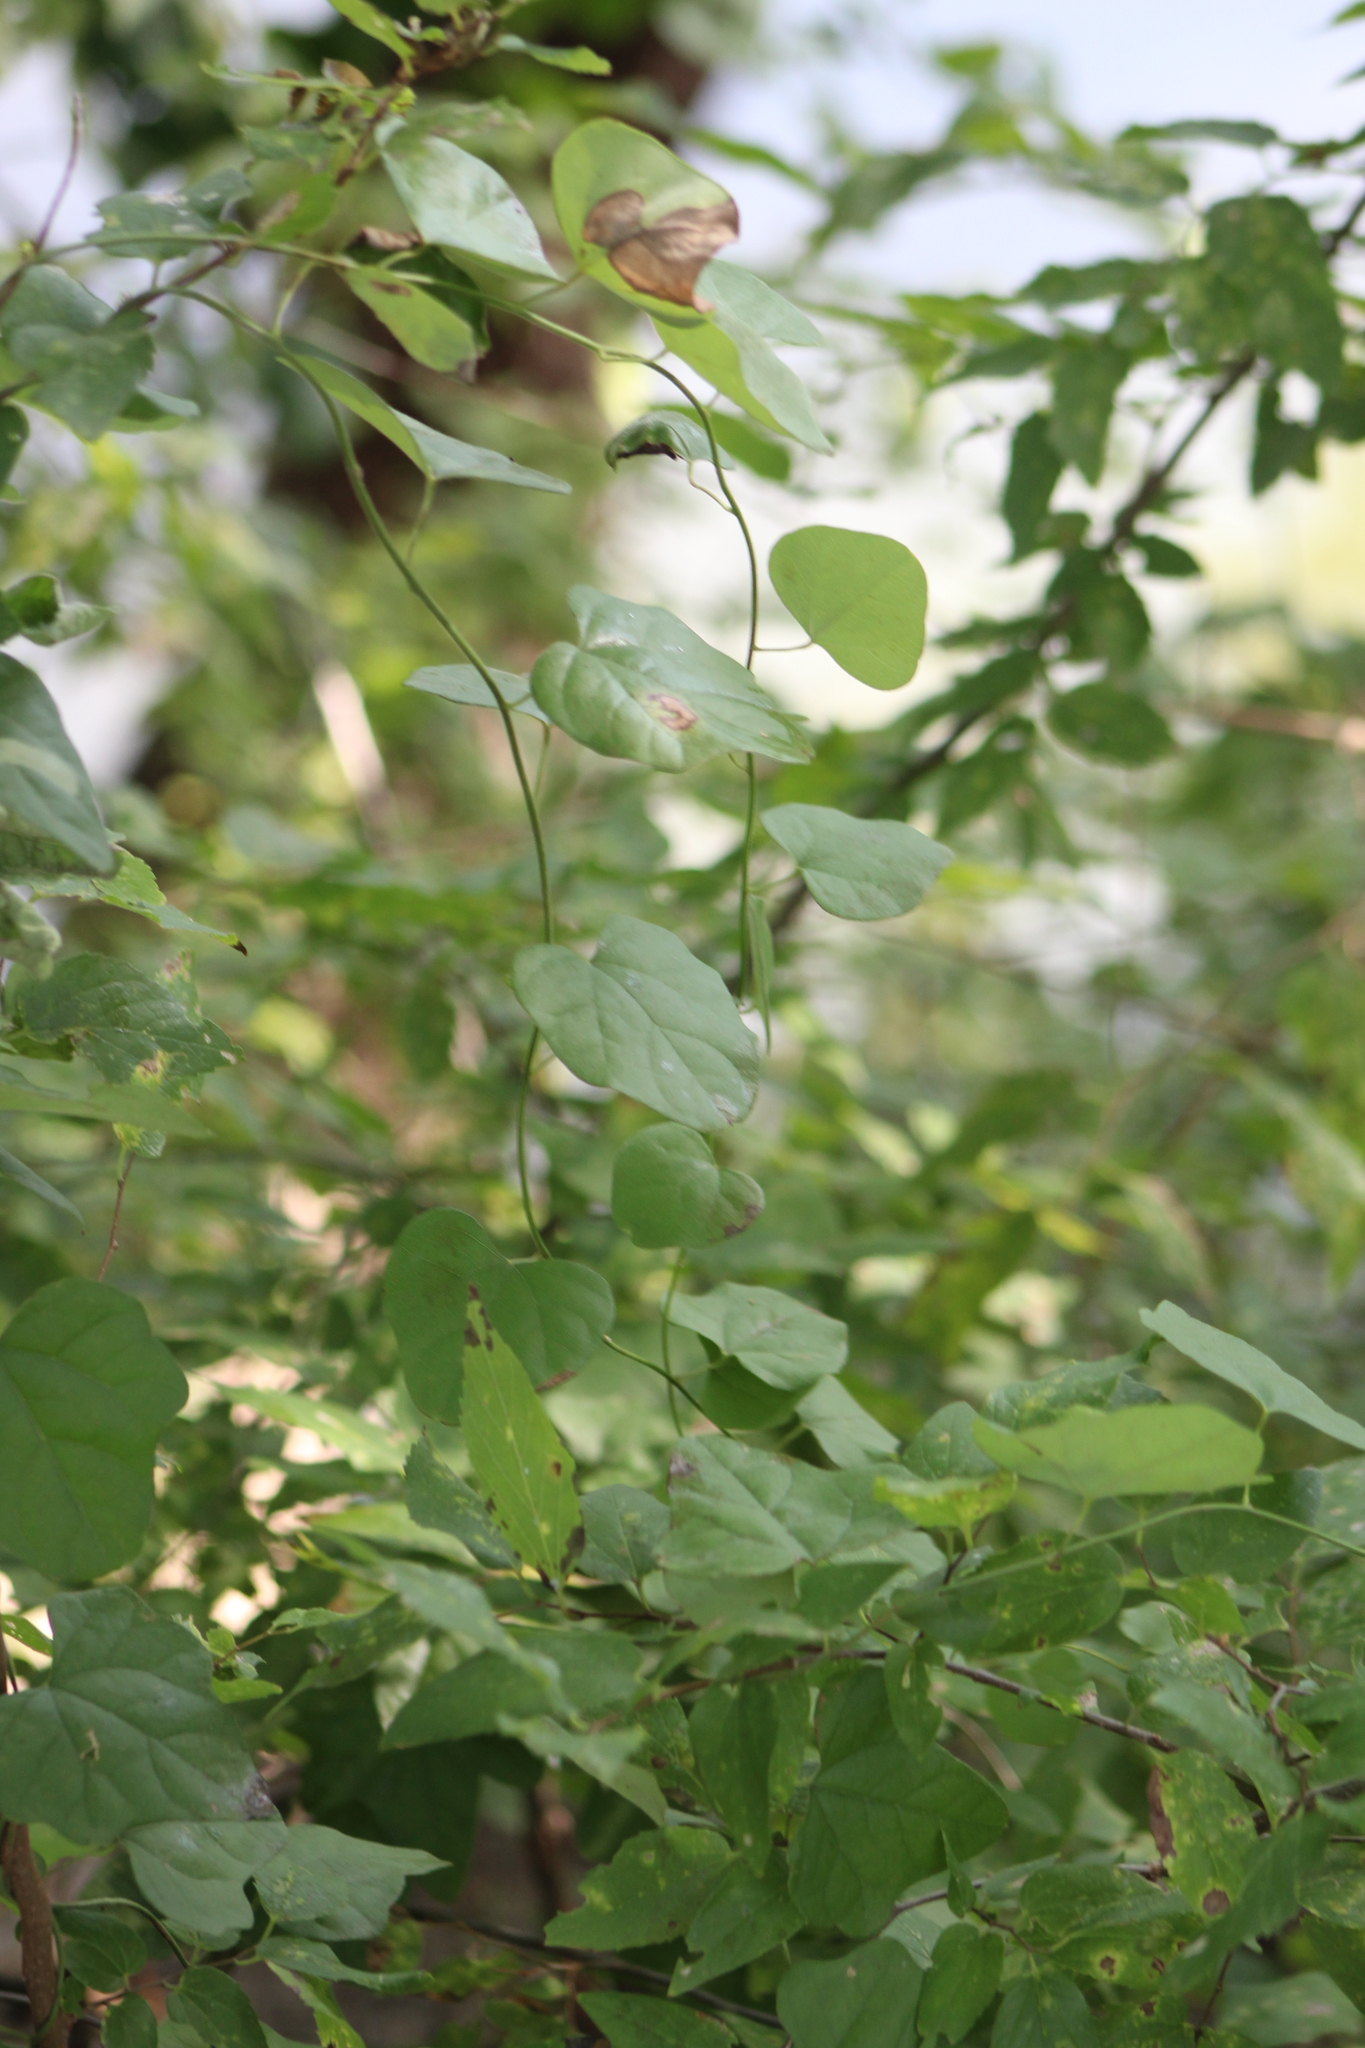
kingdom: Plantae
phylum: Tracheophyta
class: Magnoliopsida
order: Ranunculales
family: Menispermaceae
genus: Cocculus
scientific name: Cocculus carolinus
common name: Carolina moonseed
